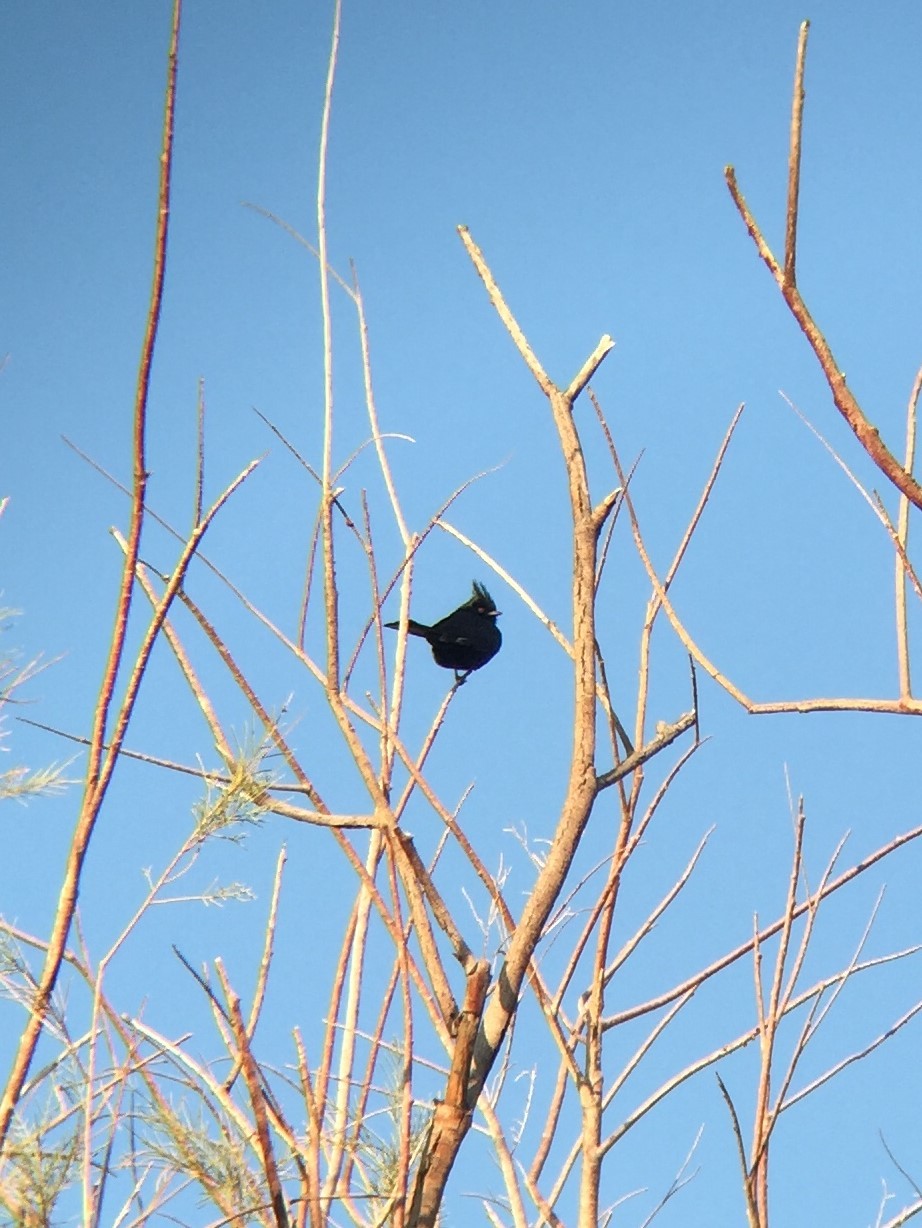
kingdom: Animalia
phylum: Chordata
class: Aves
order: Passeriformes
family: Ptilogonatidae
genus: Phainopepla
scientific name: Phainopepla nitens
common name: Phainopepla
